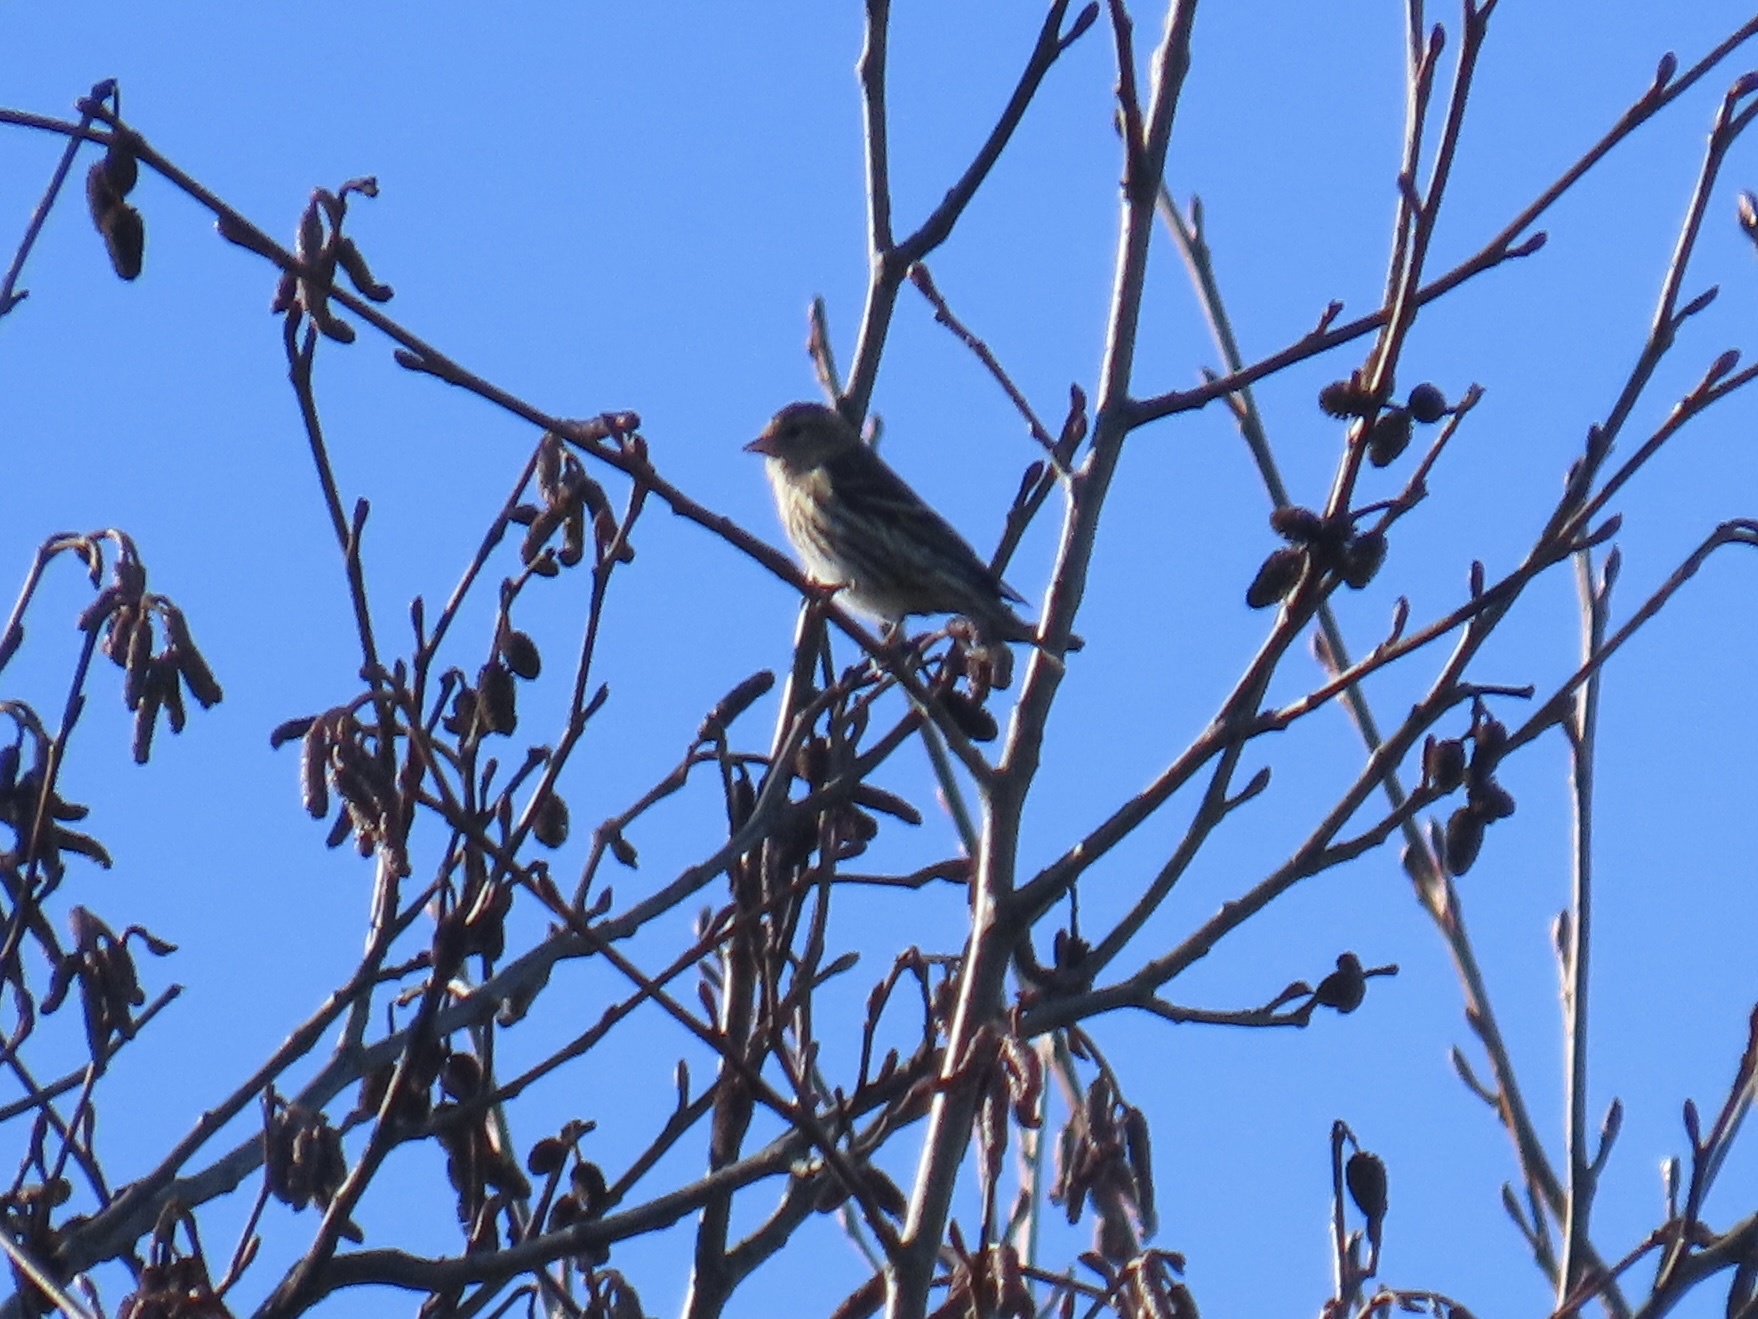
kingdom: Animalia
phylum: Chordata
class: Aves
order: Passeriformes
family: Fringillidae
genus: Spinus
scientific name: Spinus pinus
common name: Pine siskin
